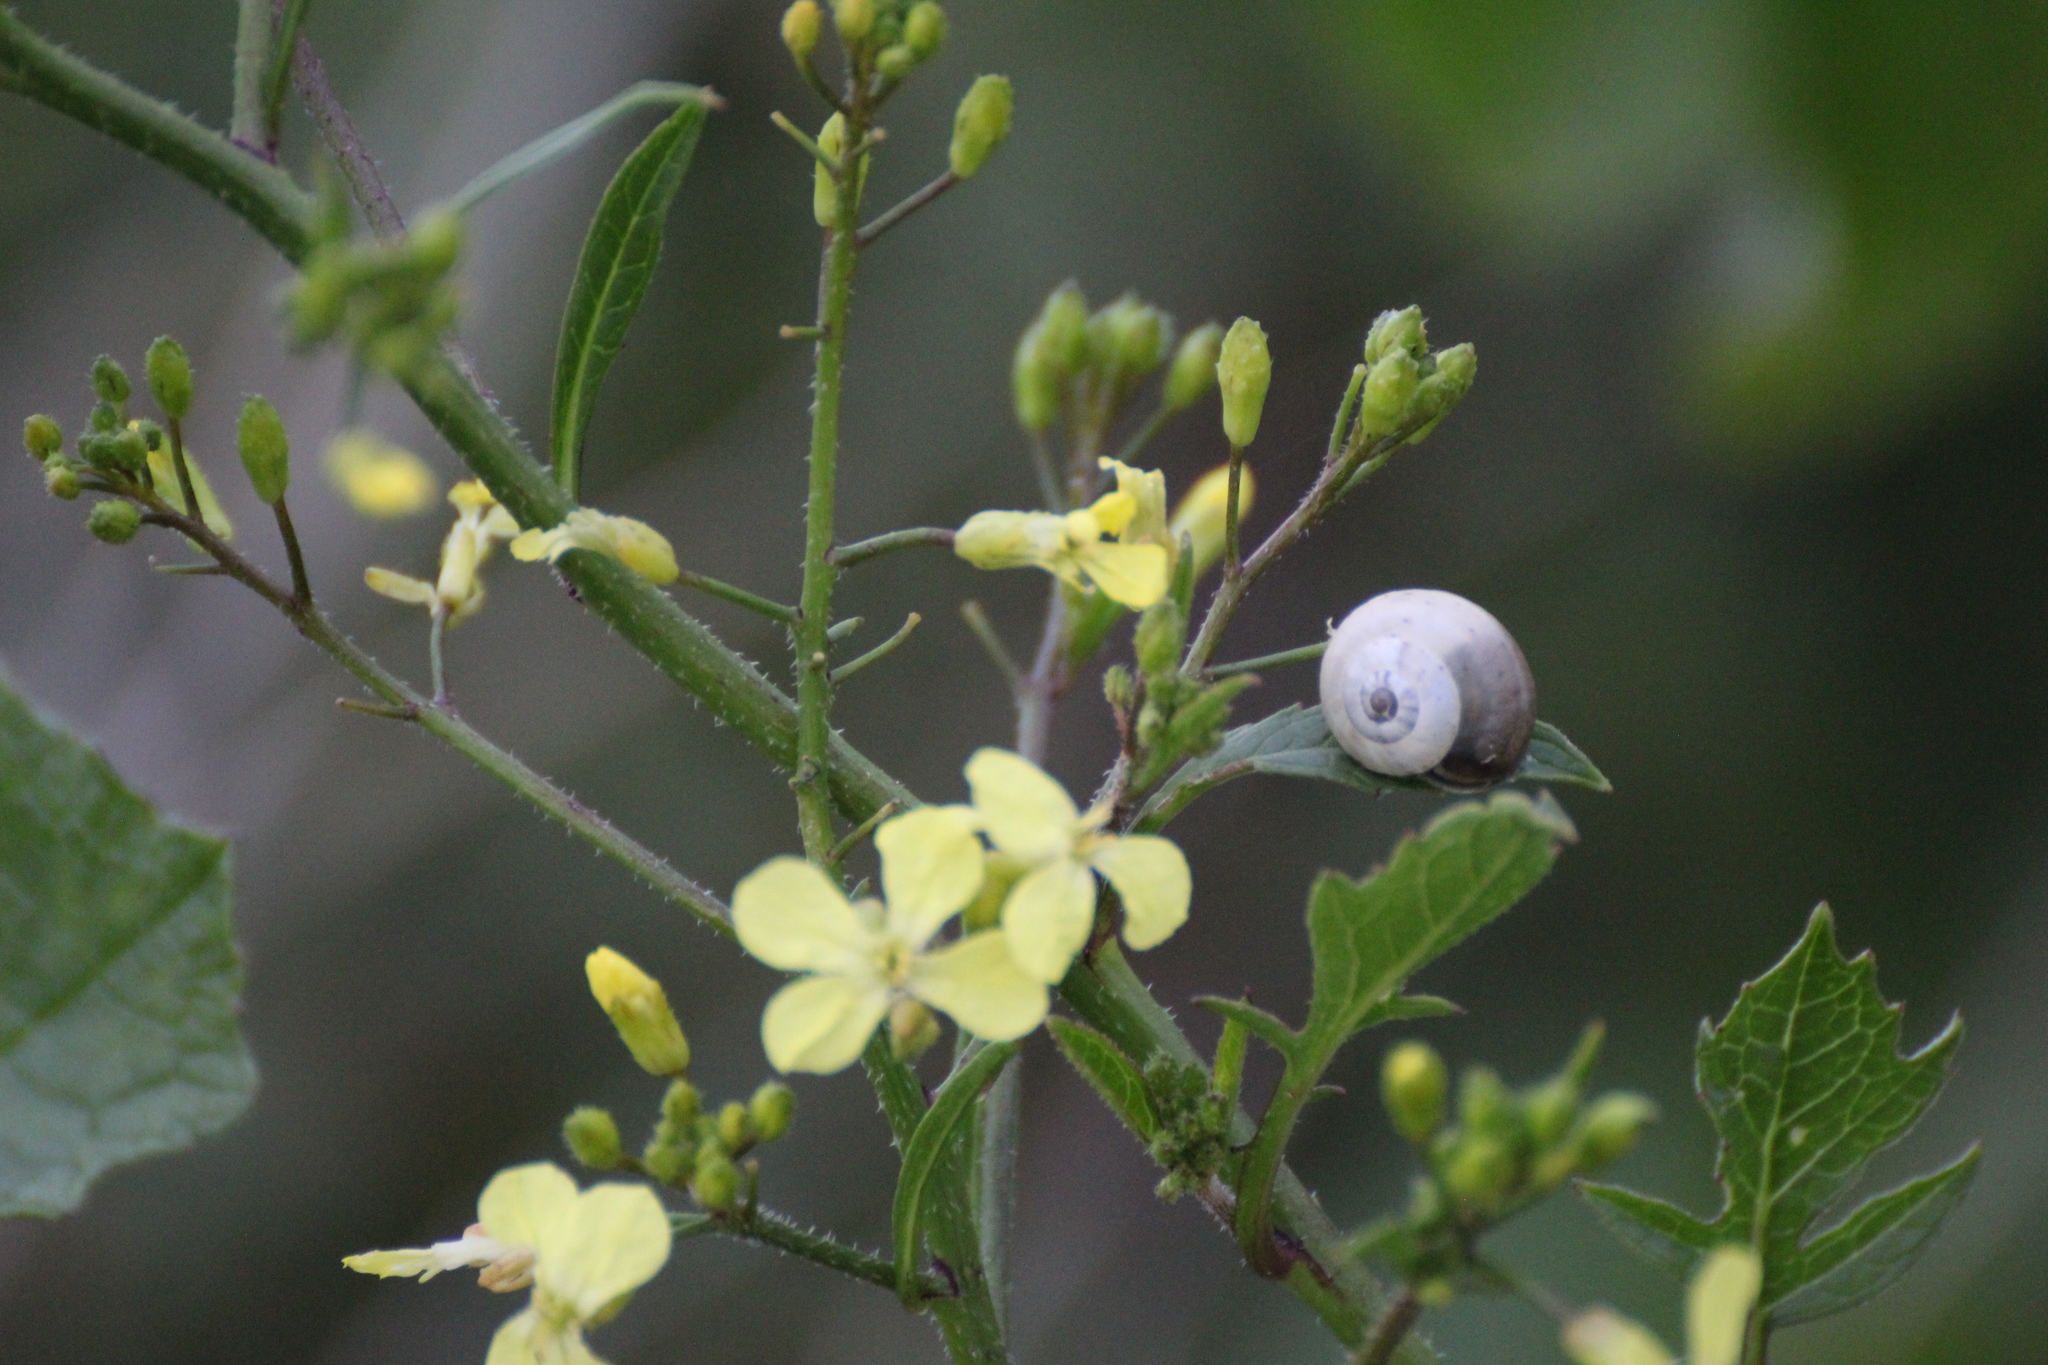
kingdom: Animalia
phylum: Mollusca
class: Gastropoda
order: Stylommatophora
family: Helicidae
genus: Theba
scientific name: Theba pisana
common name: White snail
